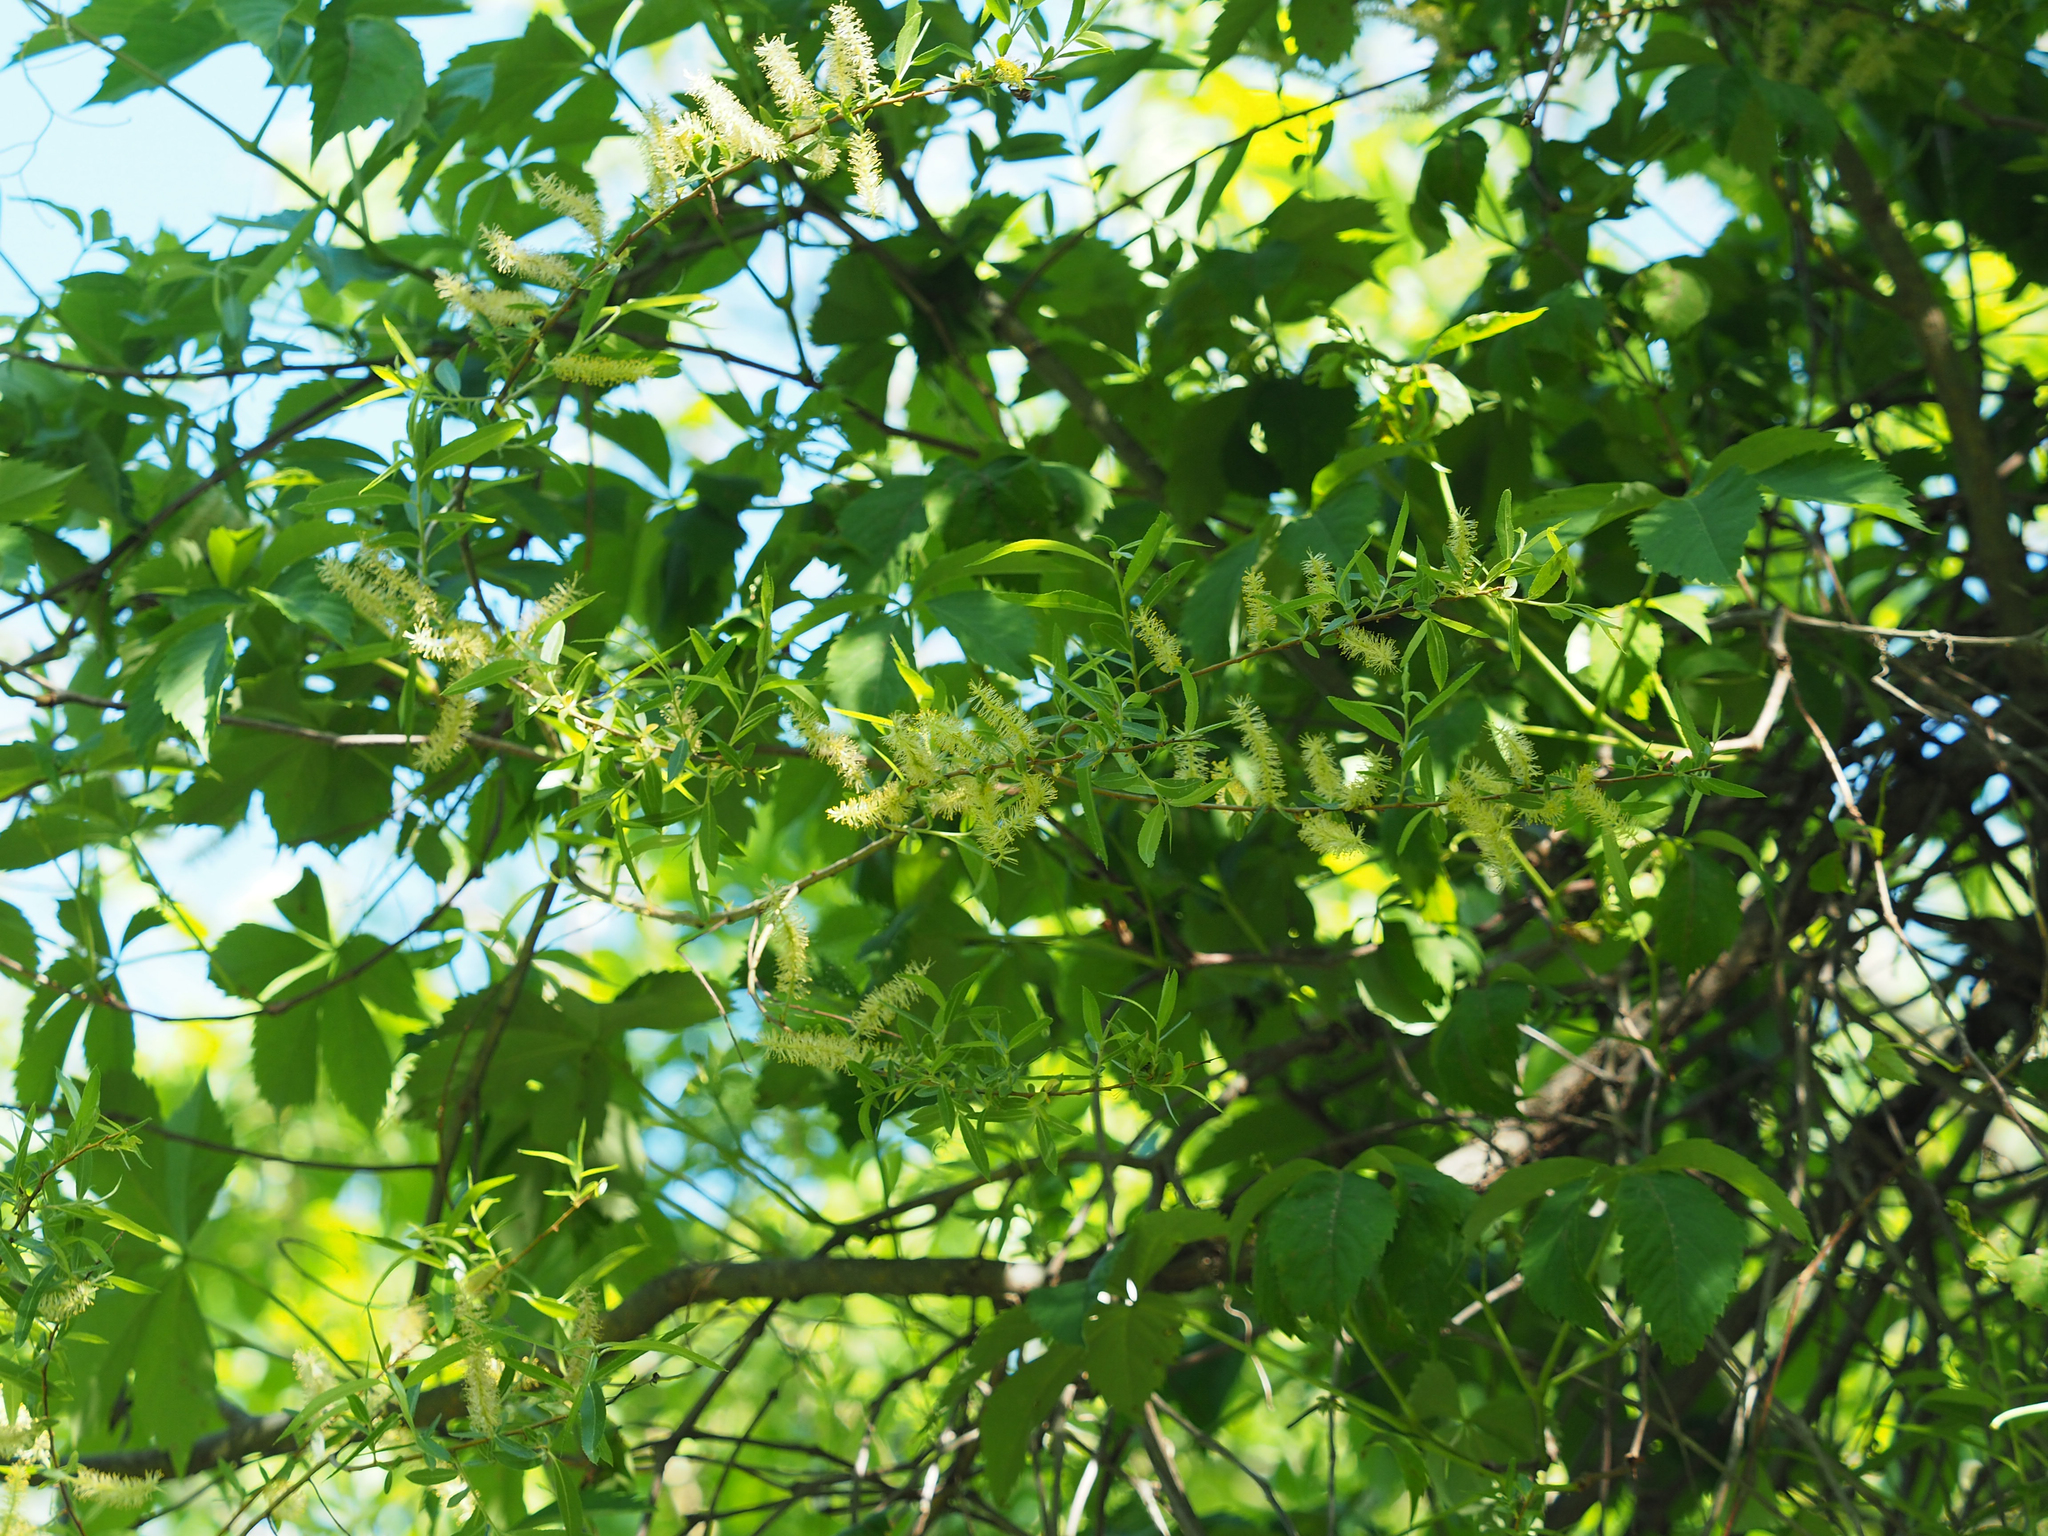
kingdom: Plantae
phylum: Tracheophyta
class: Magnoliopsida
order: Malpighiales
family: Salicaceae
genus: Salix
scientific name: Salix nigra
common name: Black willow
